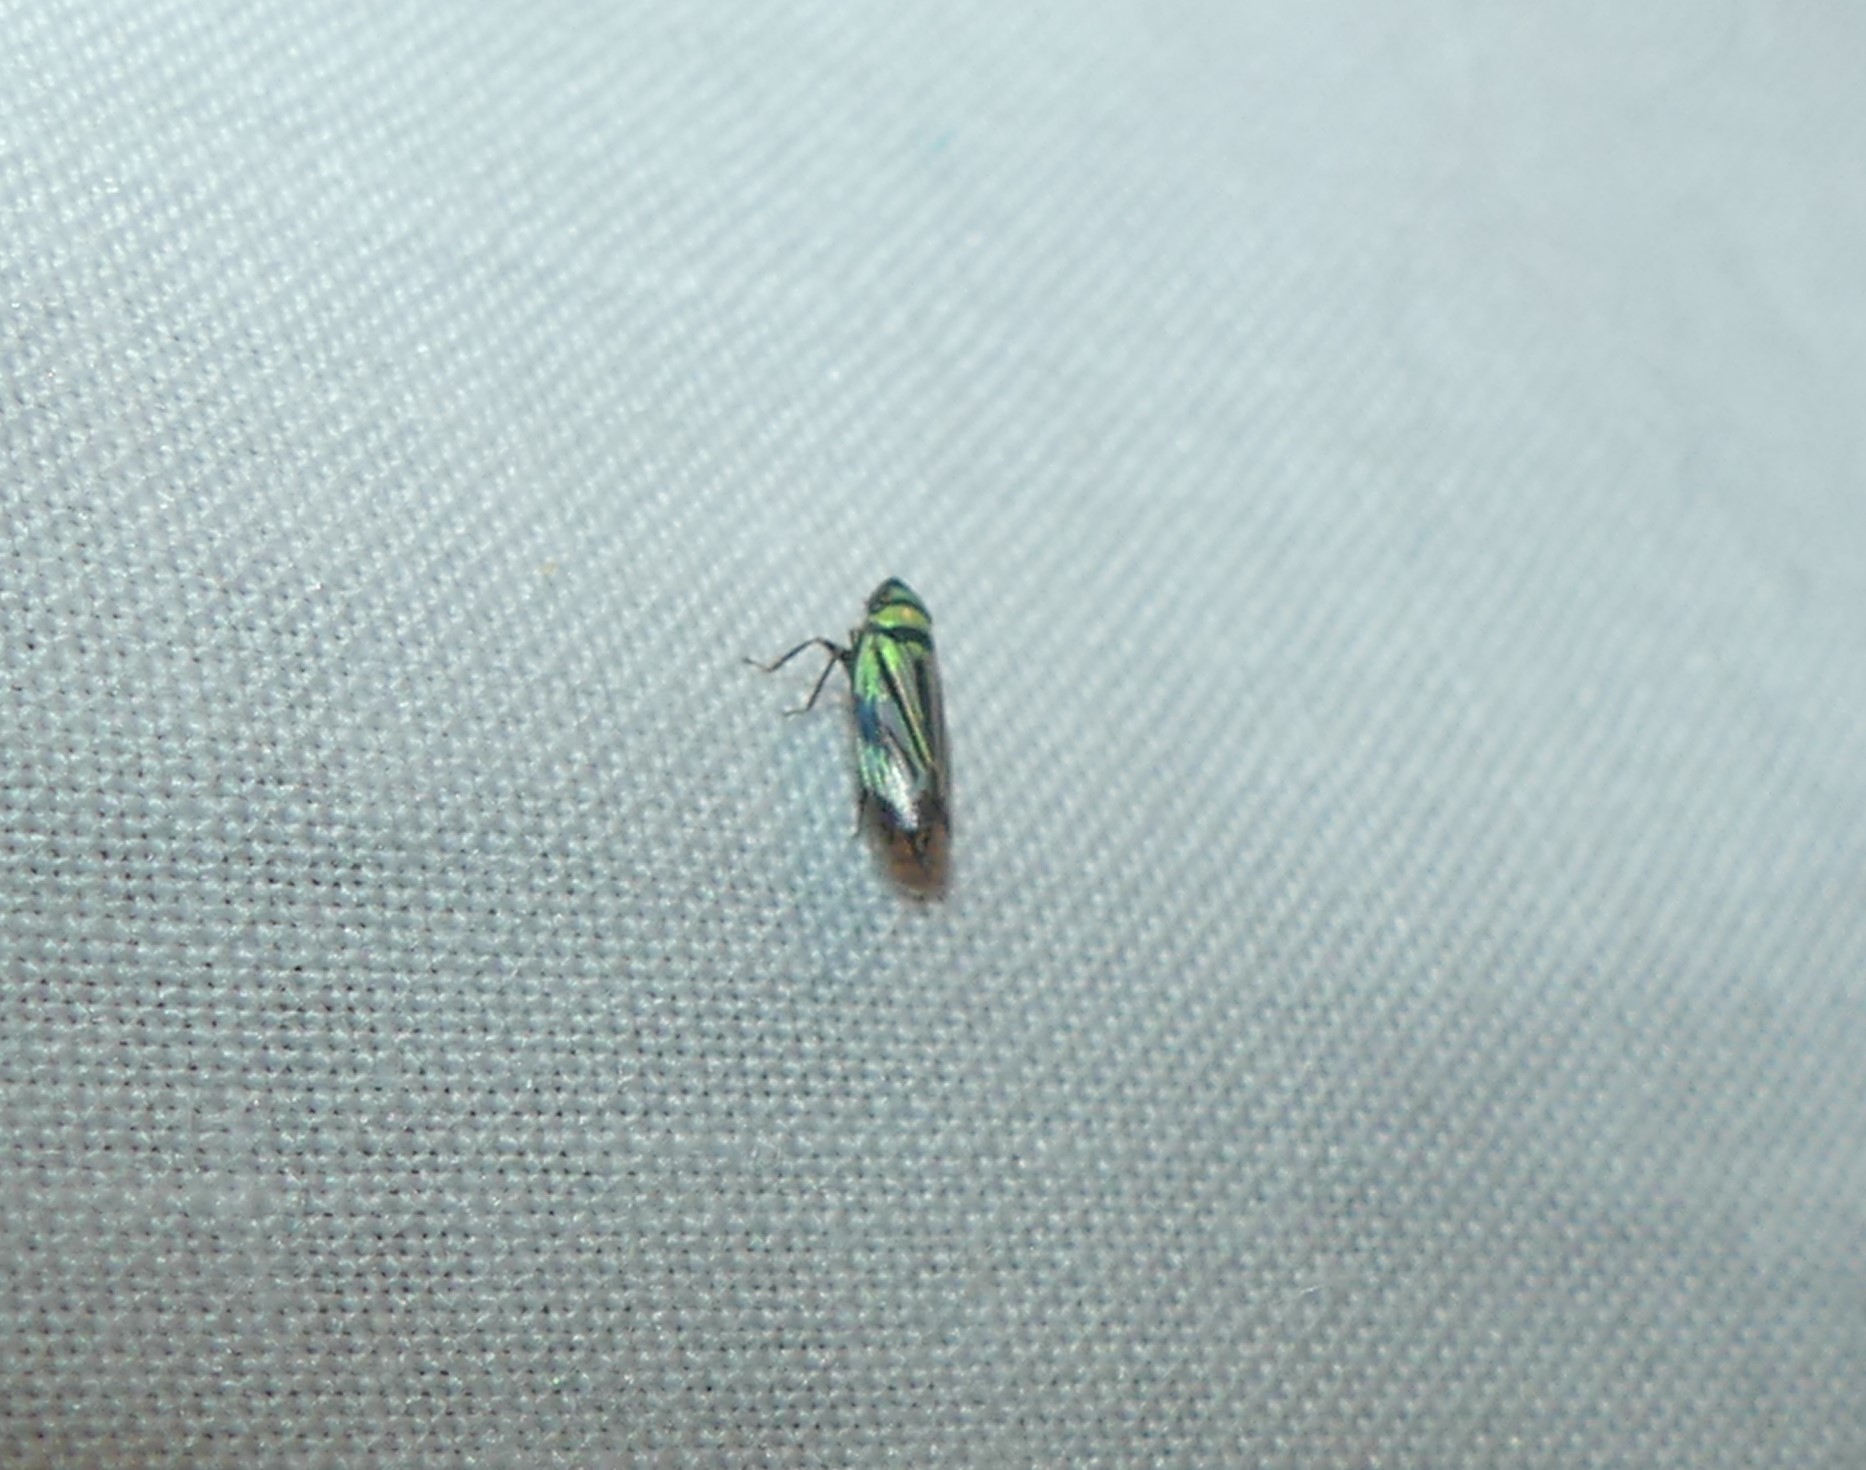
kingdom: Animalia
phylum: Arthropoda
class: Insecta
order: Hemiptera
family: Cicadellidae
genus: Stirellus
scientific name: Stirellus bicolor
